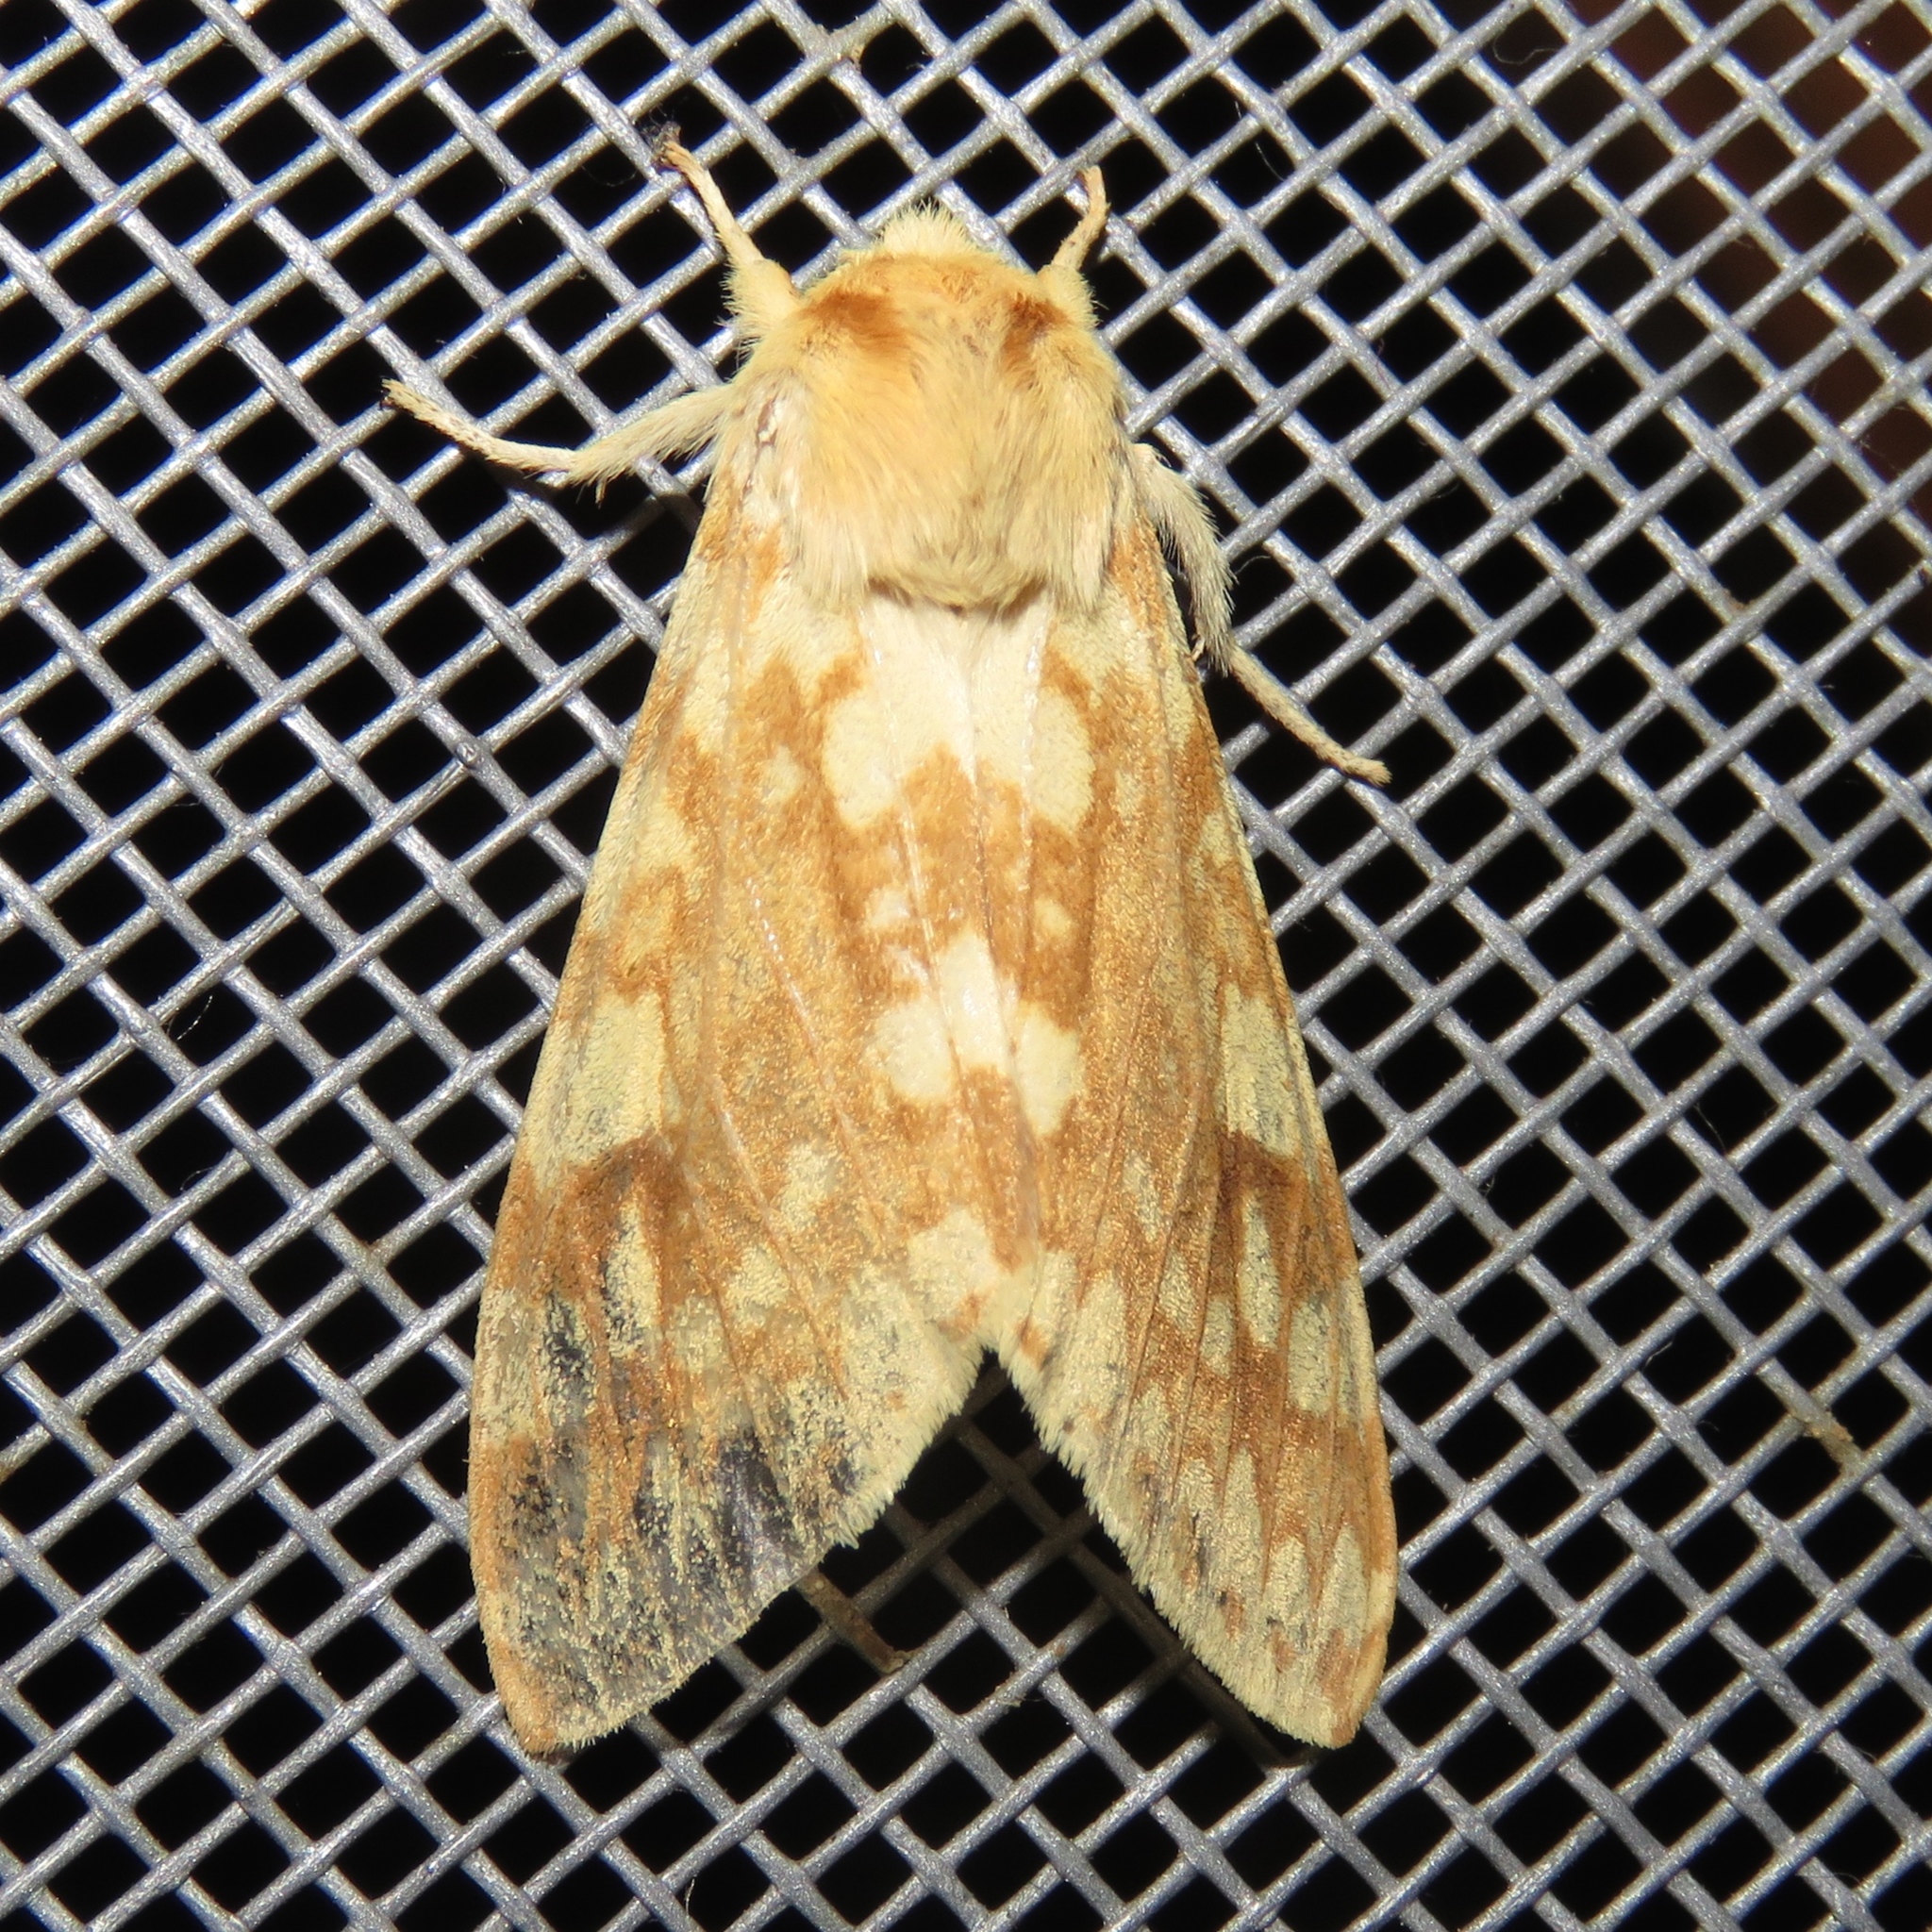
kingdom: Animalia
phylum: Arthropoda
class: Insecta
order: Lepidoptera
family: Erebidae
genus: Lophocampa
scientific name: Lophocampa maculata
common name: Spotted tussock moth
